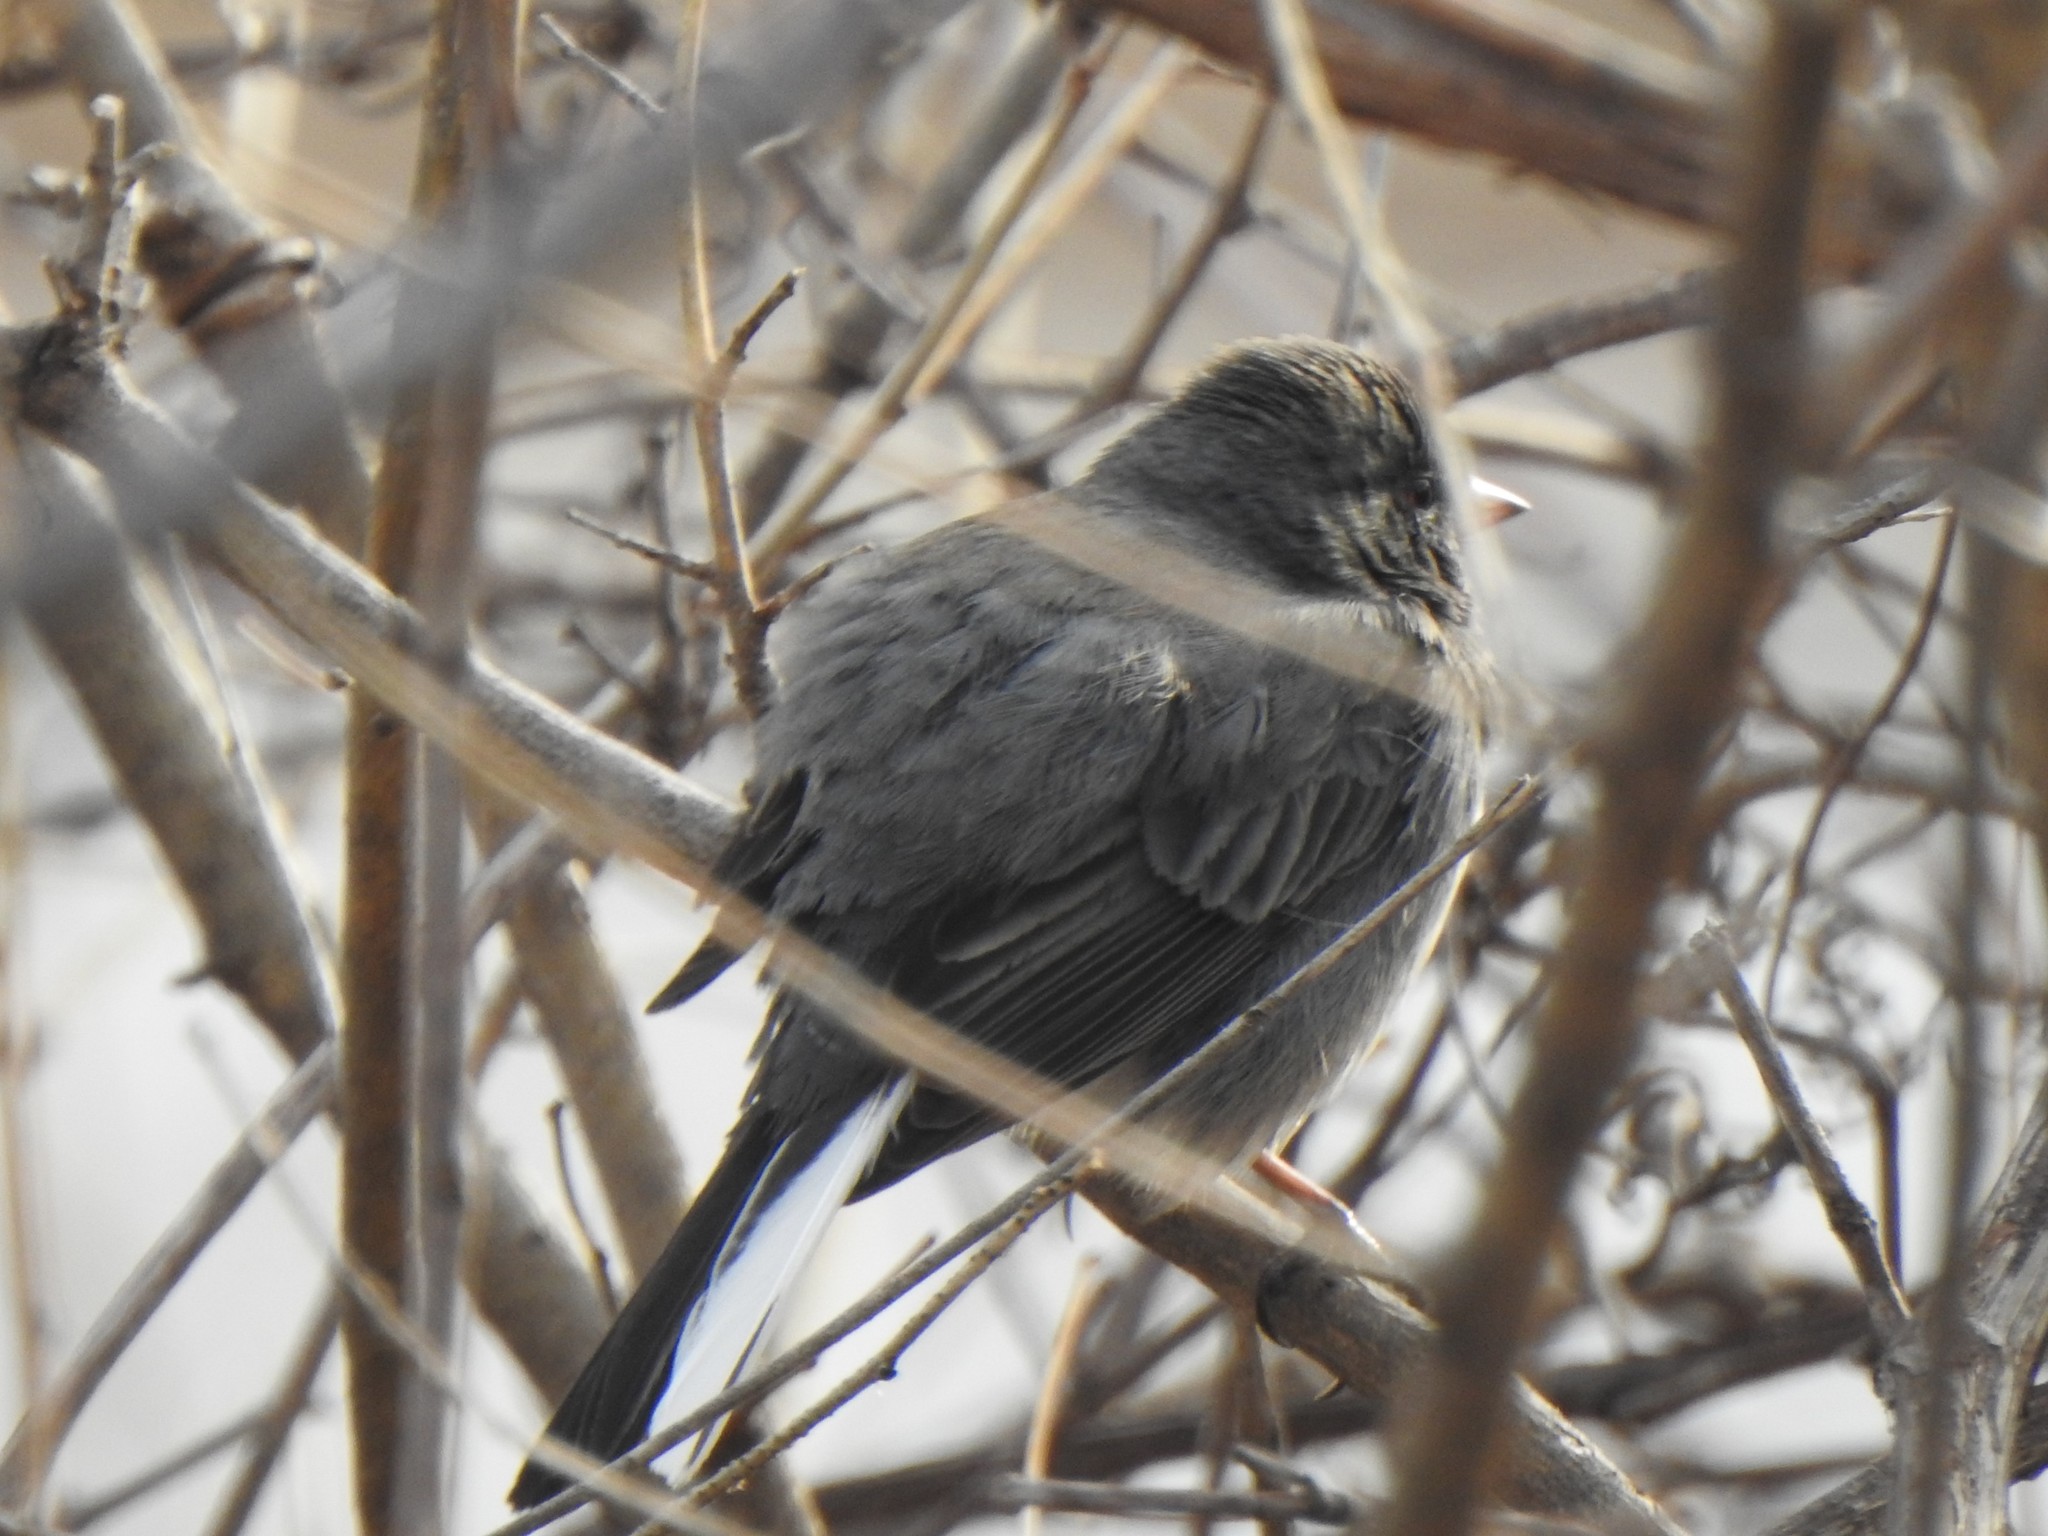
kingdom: Animalia
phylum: Chordata
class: Aves
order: Passeriformes
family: Passerellidae
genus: Junco
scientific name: Junco hyemalis
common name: Dark-eyed junco
